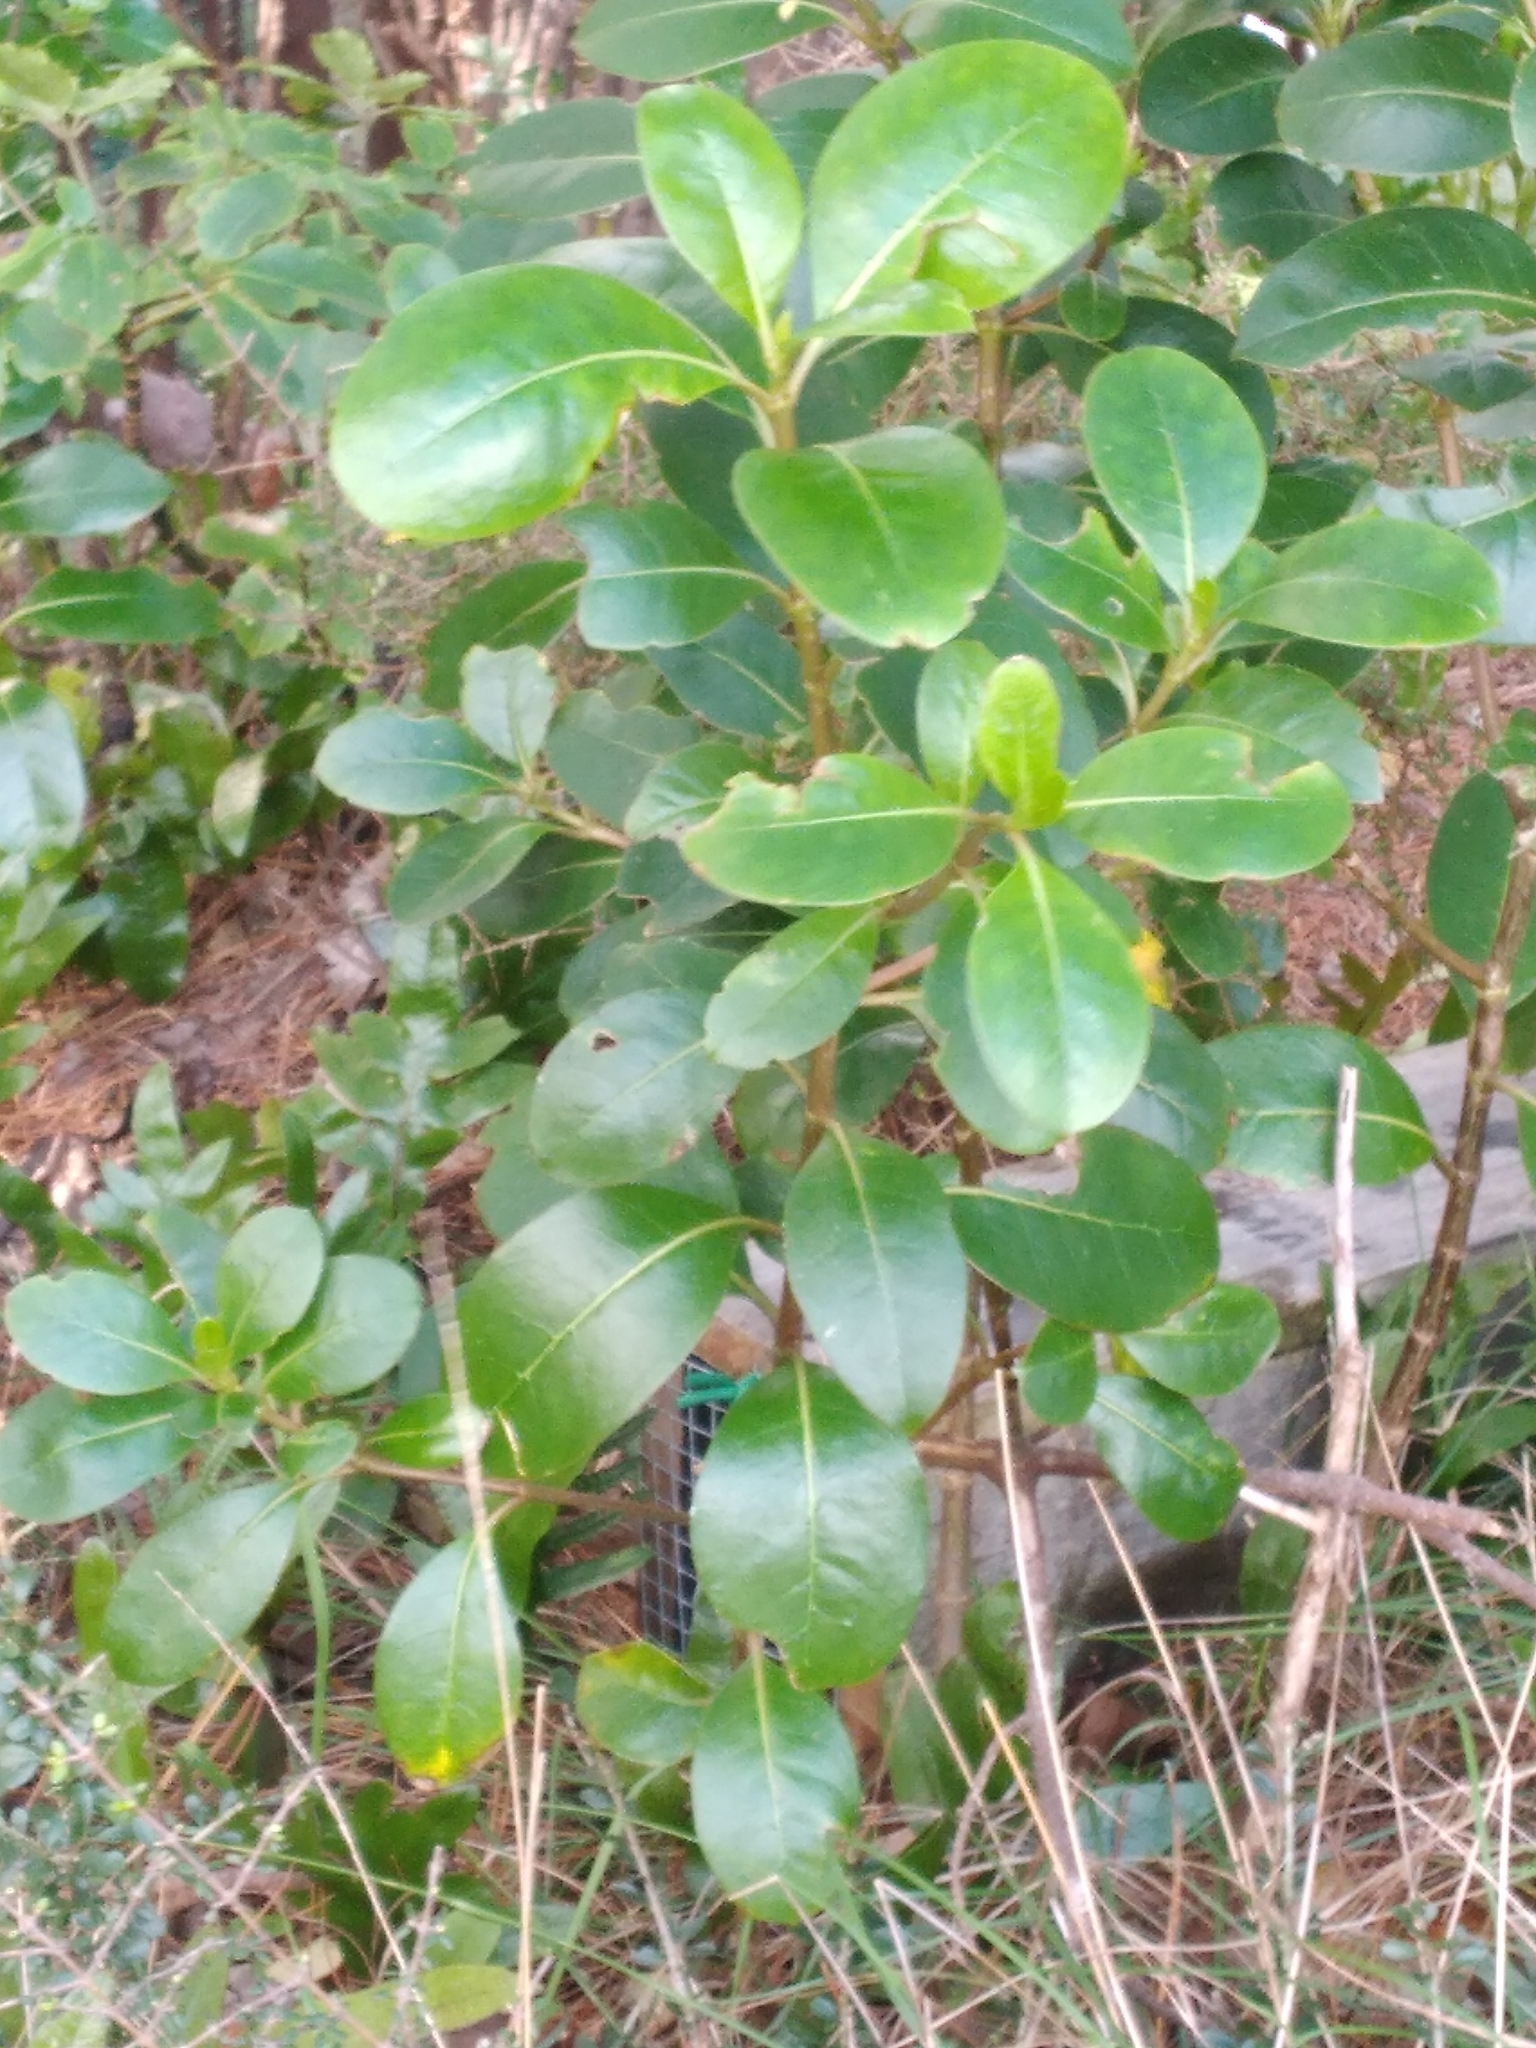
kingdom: Plantae
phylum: Tracheophyta
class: Magnoliopsida
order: Gentianales
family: Rubiaceae
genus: Coprosma
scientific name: Coprosma lucida
